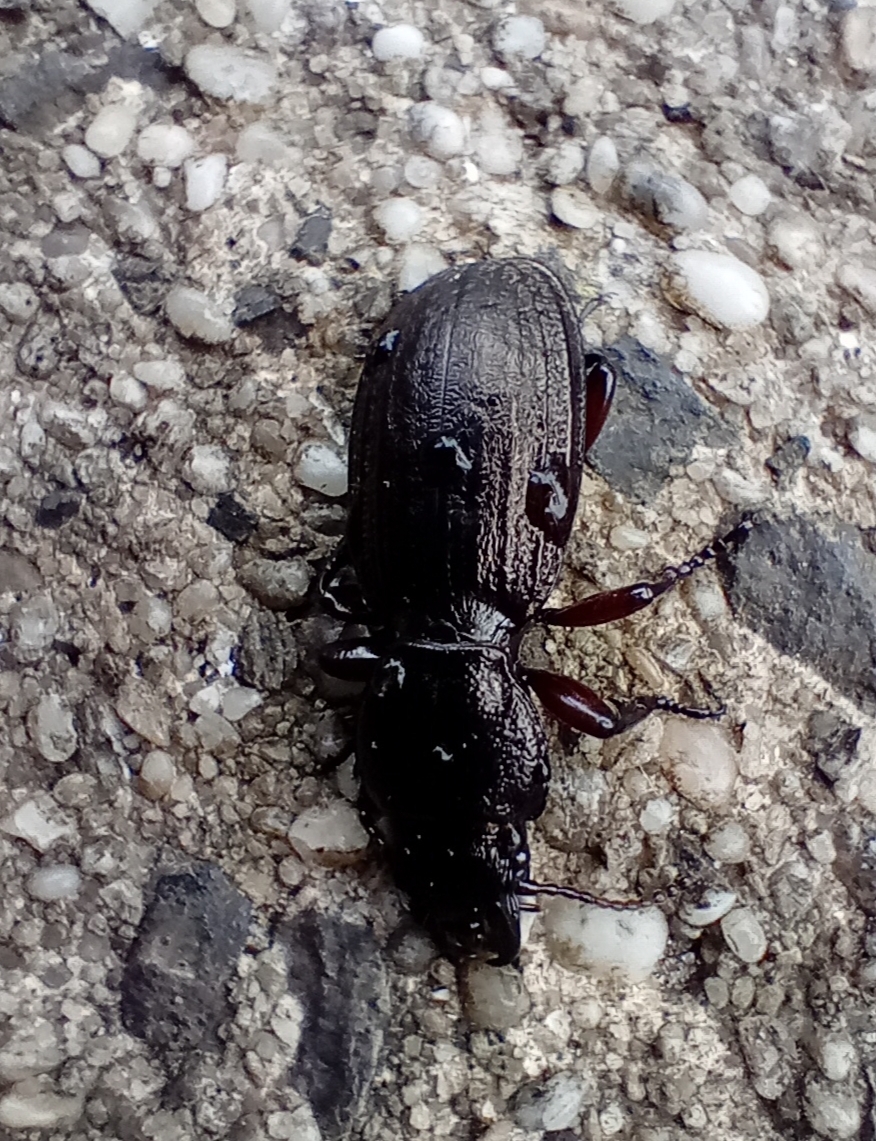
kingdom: Animalia
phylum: Arthropoda
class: Insecta
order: Coleoptera
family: Carabidae
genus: Mecodema
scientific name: Mecodema sculpturatum
